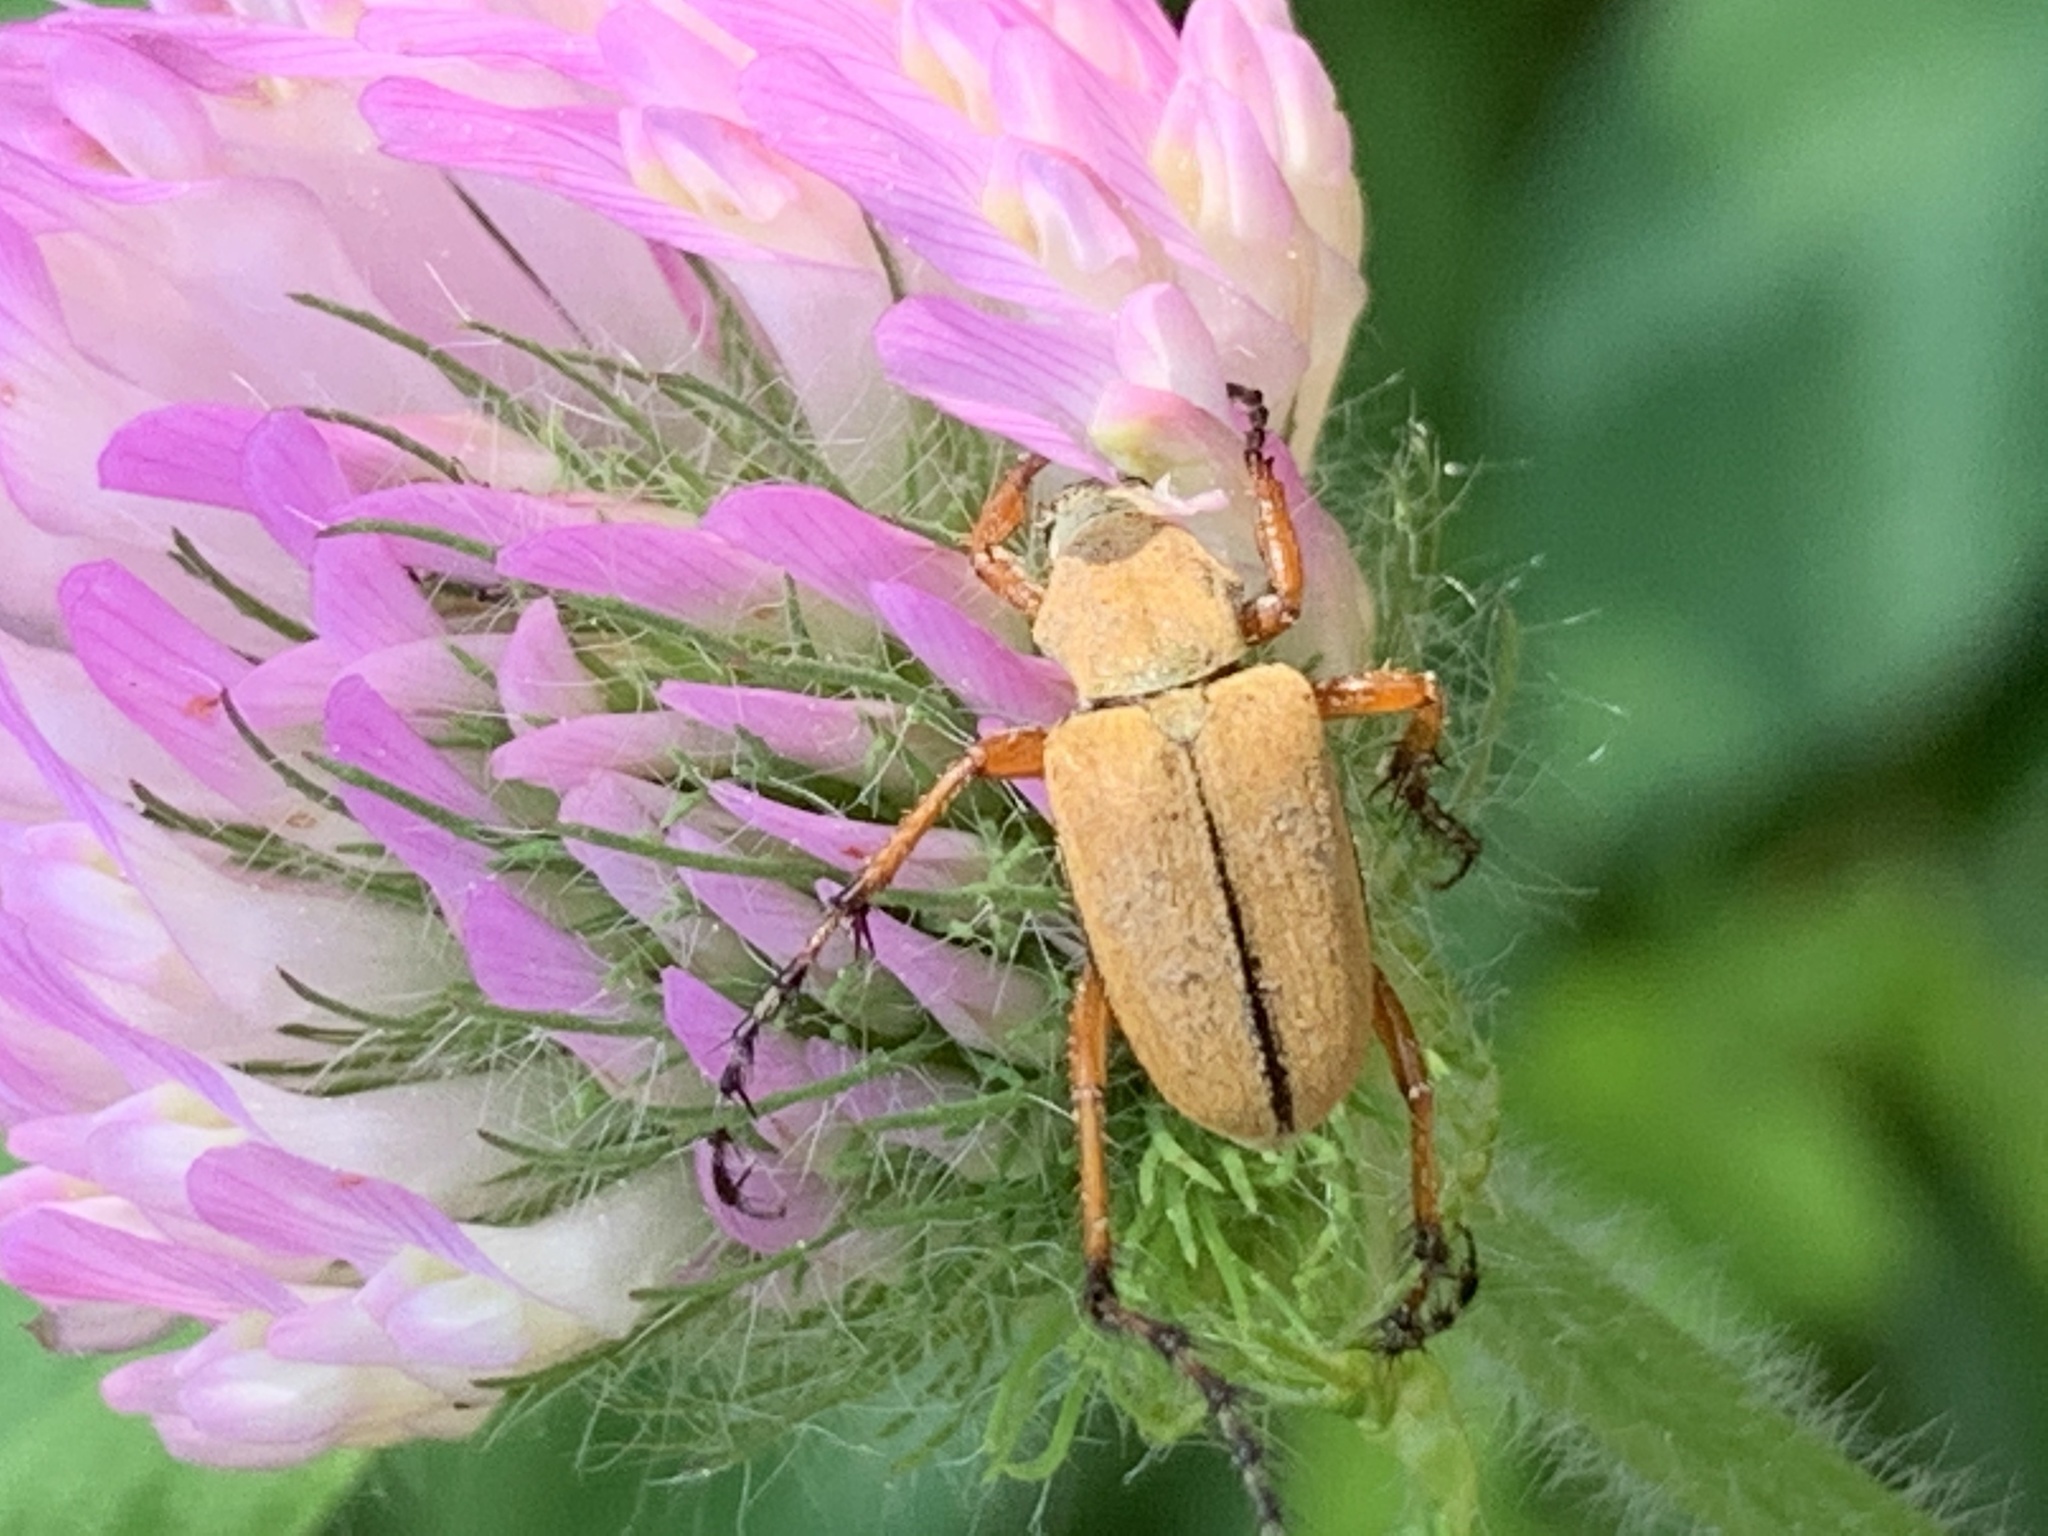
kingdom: Animalia
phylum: Arthropoda
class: Insecta
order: Coleoptera
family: Scarabaeidae
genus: Macrodactylus
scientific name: Macrodactylus subspinosus
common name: American rose chafer
